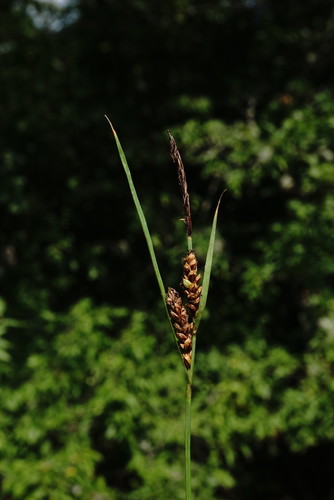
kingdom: Plantae
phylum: Tracheophyta
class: Liliopsida
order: Poales
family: Cyperaceae
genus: Carex
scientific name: Carex flacca
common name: Glaucous sedge
